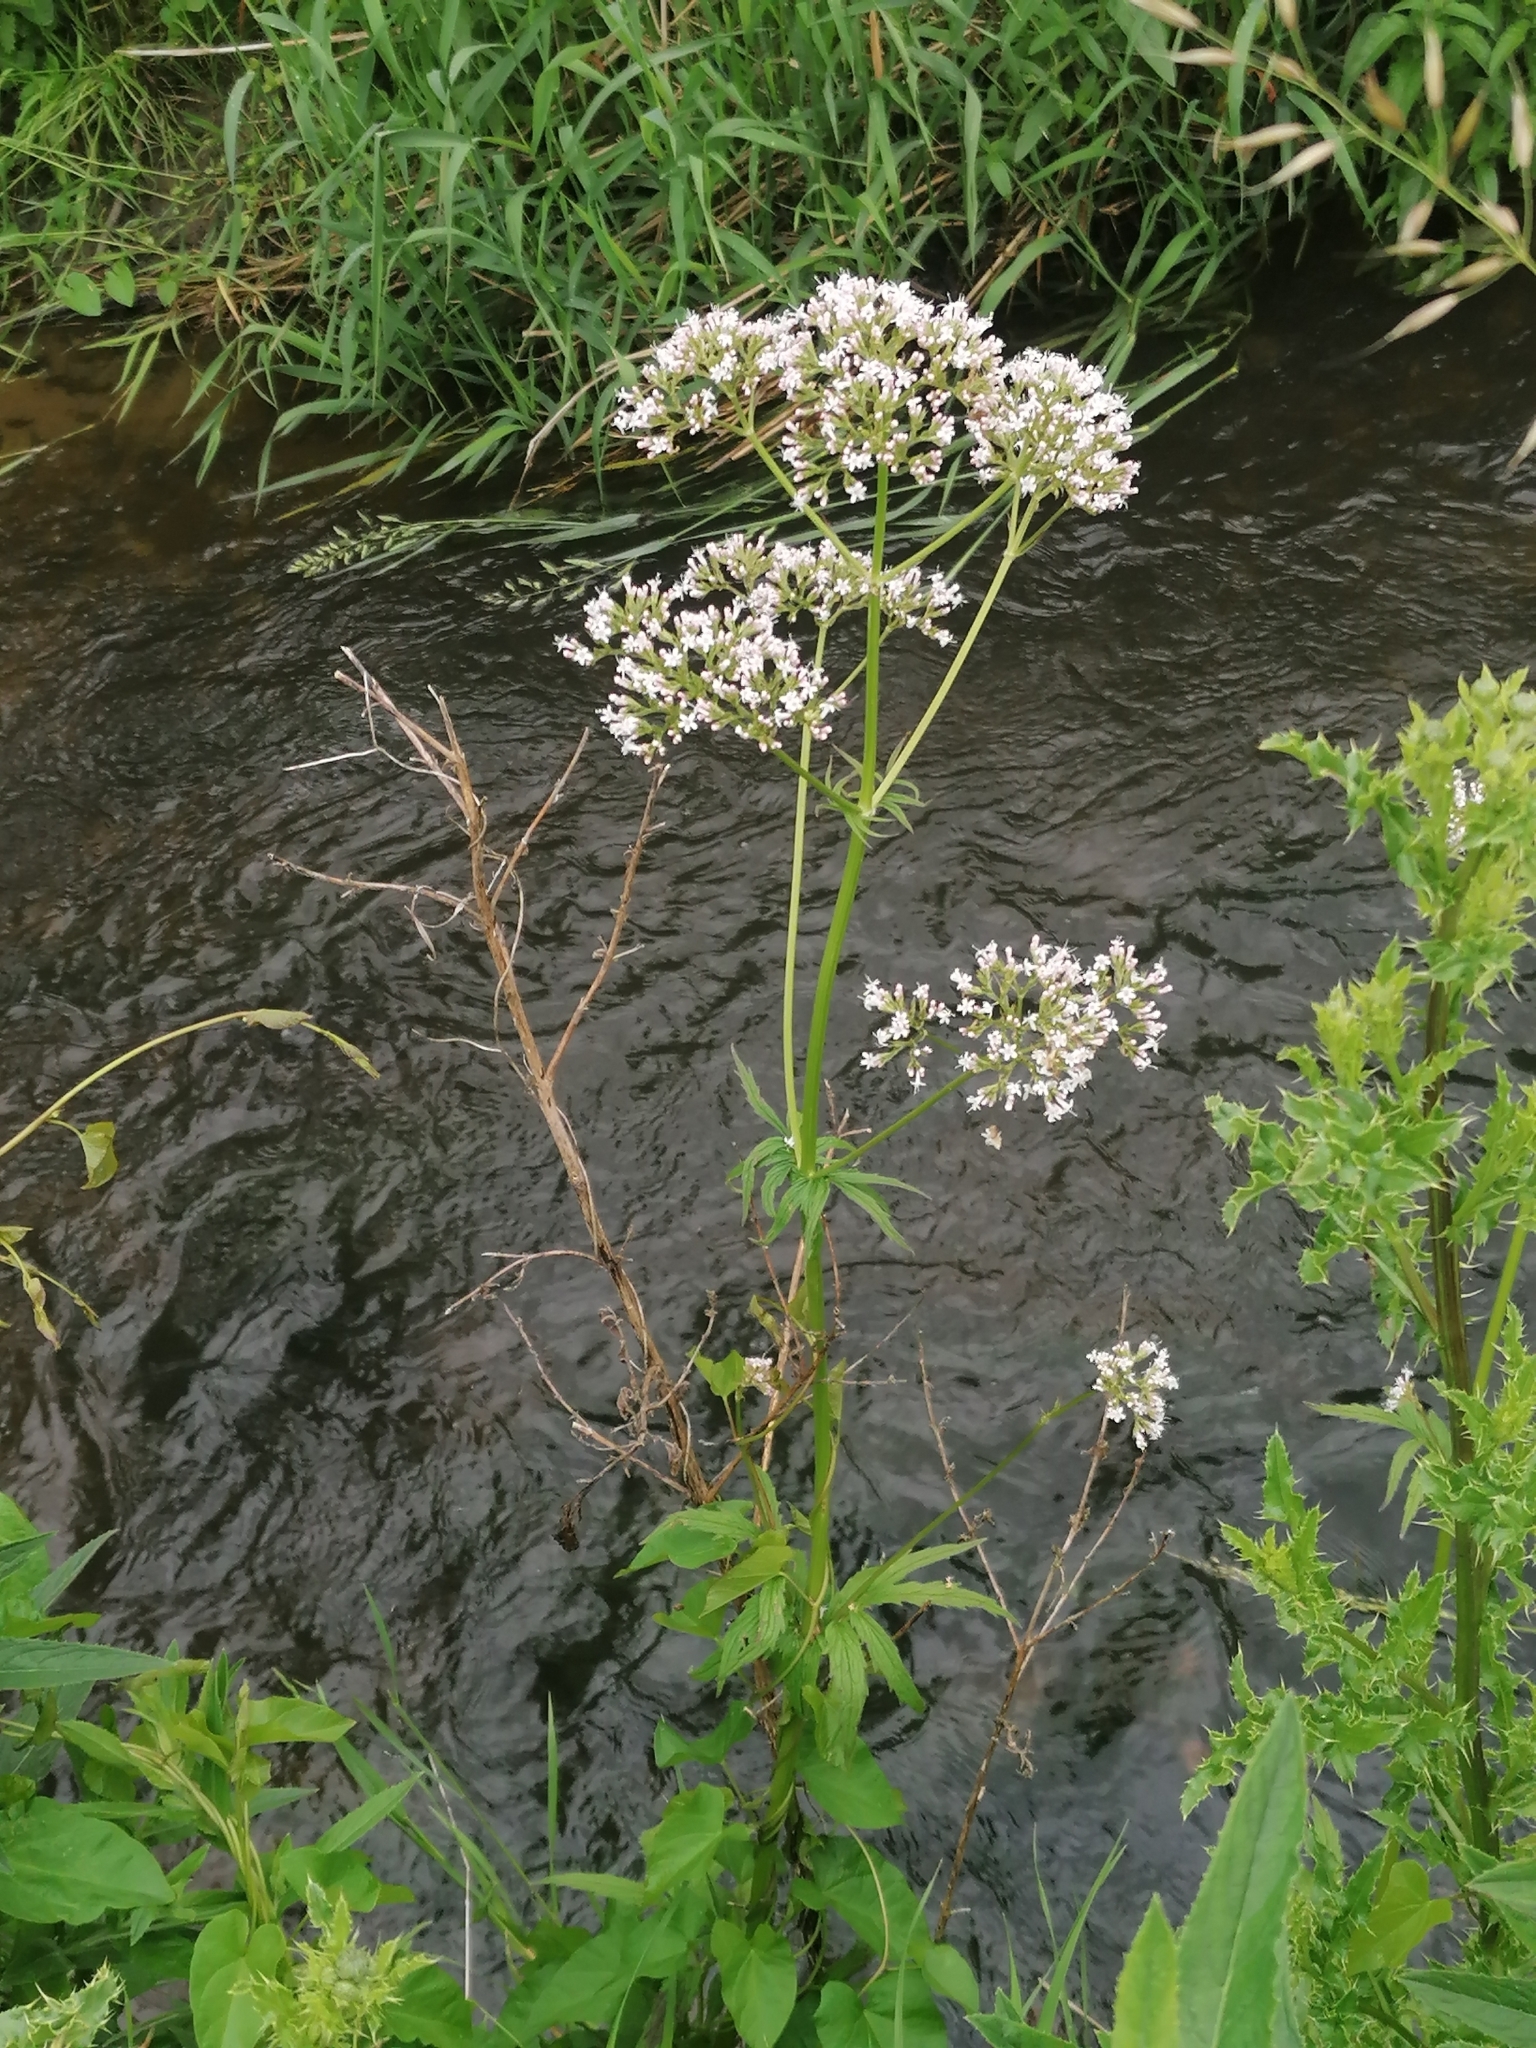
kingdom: Plantae
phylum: Tracheophyta
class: Magnoliopsida
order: Dipsacales
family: Caprifoliaceae
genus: Valeriana
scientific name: Valeriana excelsa
